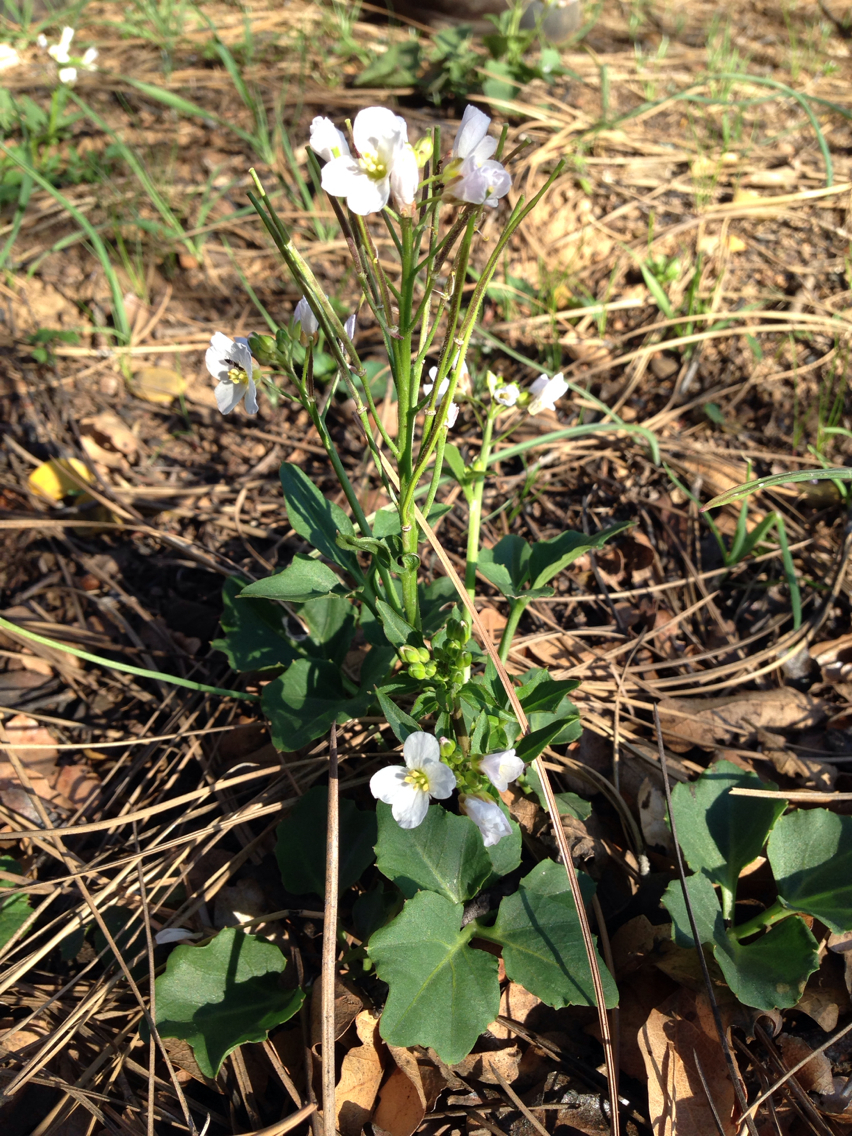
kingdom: Plantae
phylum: Tracheophyta
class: Magnoliopsida
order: Brassicales
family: Brassicaceae
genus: Cardamine
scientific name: Cardamine californica
